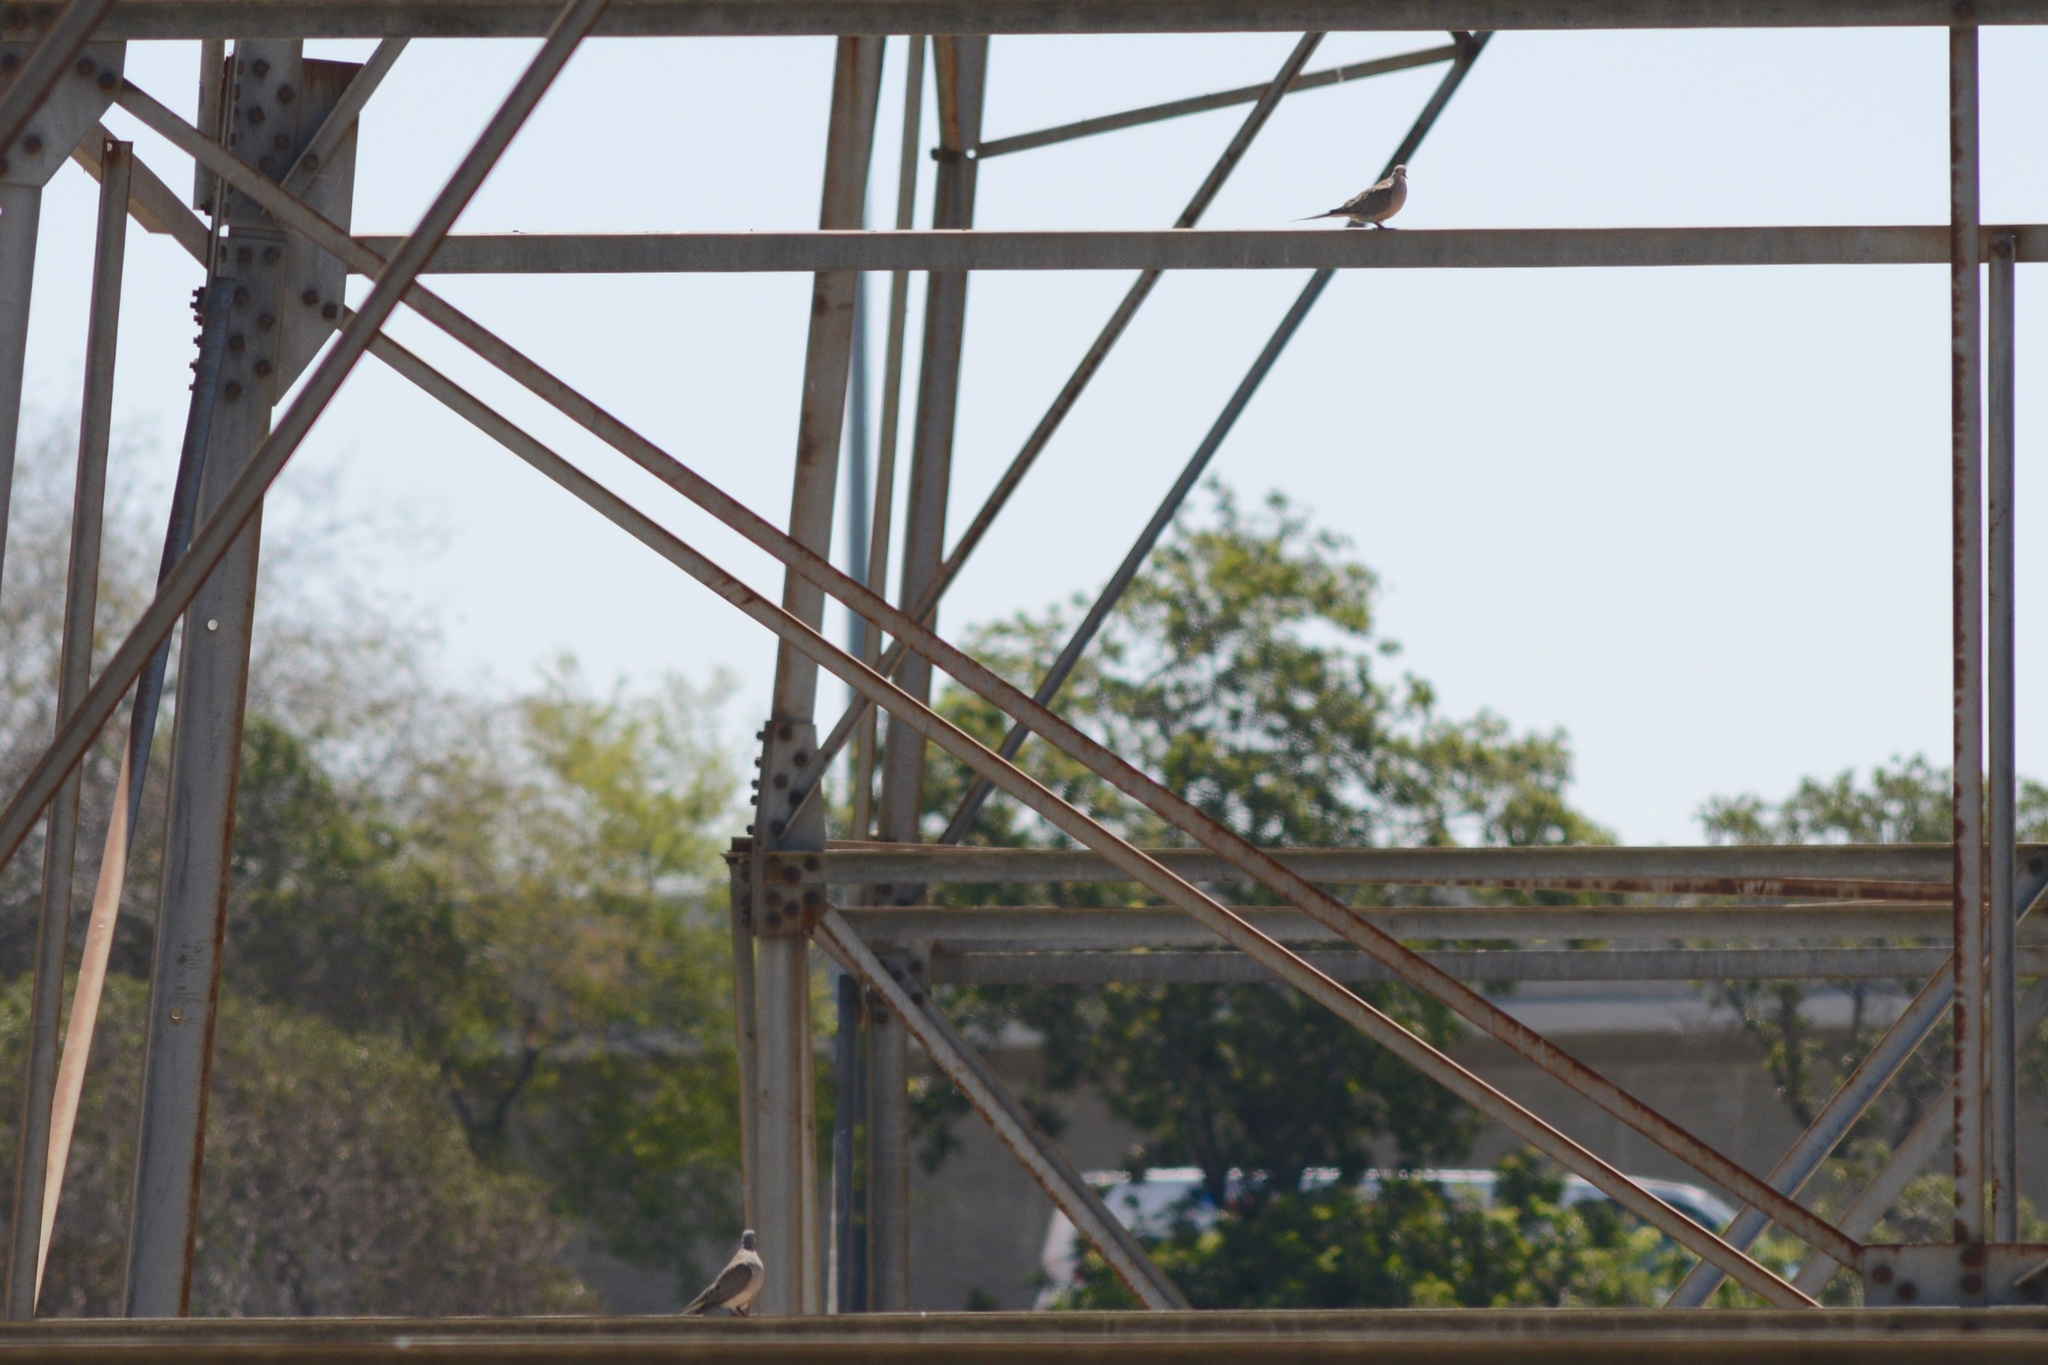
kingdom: Animalia
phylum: Chordata
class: Aves
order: Columbiformes
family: Columbidae
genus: Zenaida
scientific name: Zenaida macroura
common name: Mourning dove
